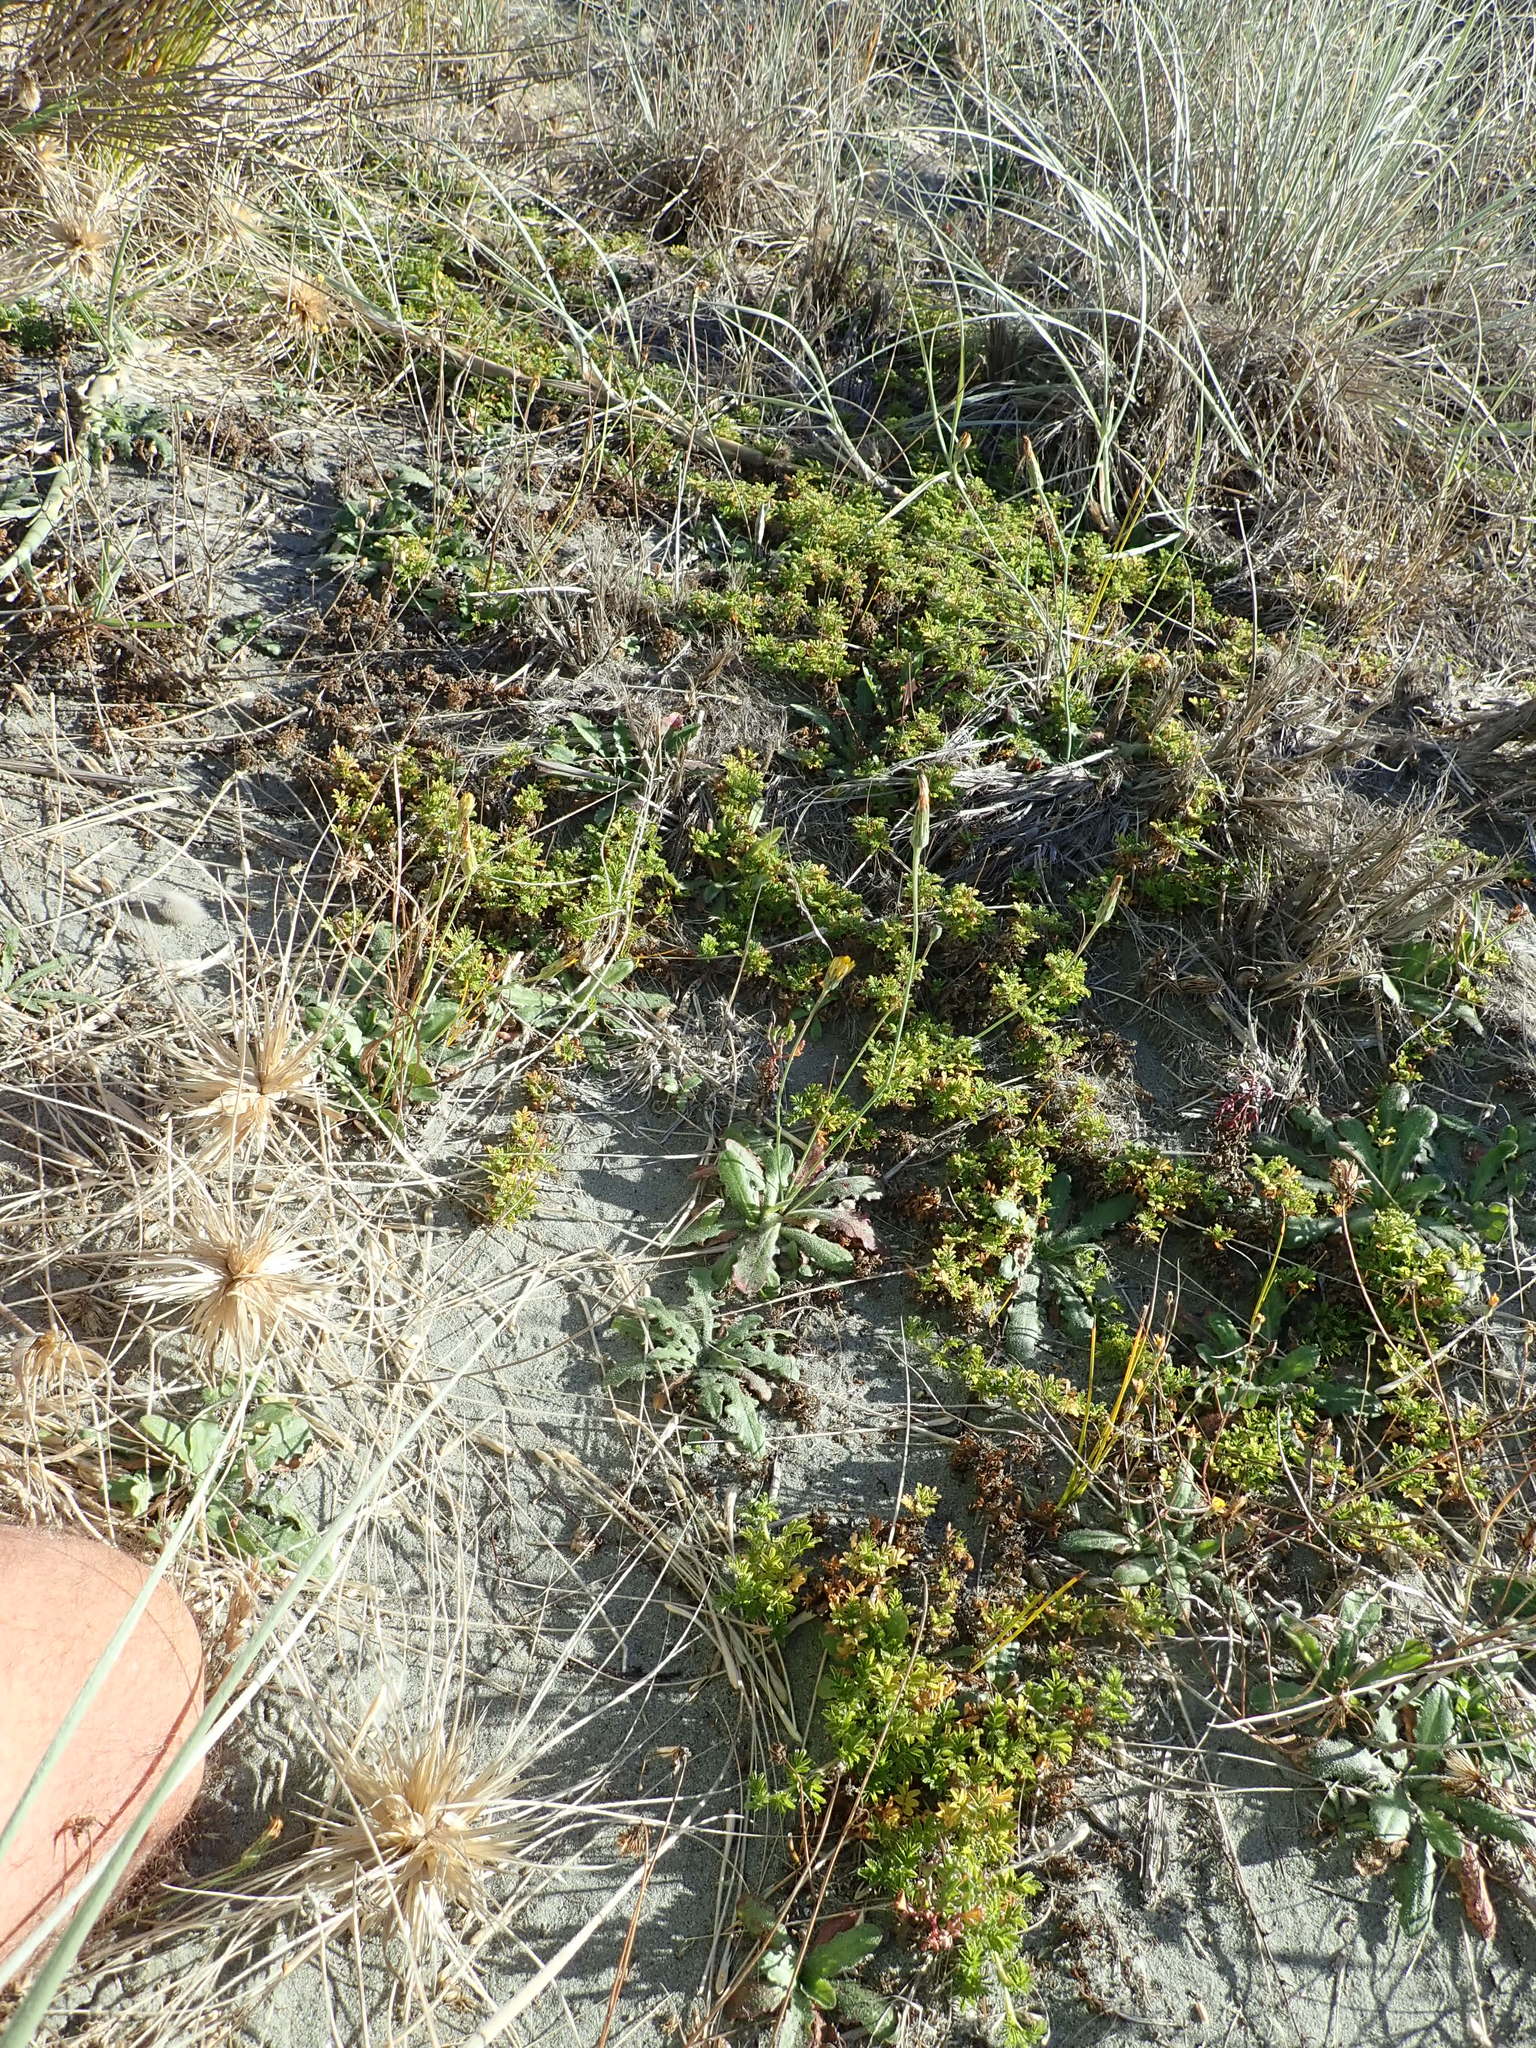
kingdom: Plantae
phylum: Tracheophyta
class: Magnoliopsida
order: Rosales
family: Rosaceae
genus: Acaena
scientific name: Acaena novae-zelandiae
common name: Pirri-pirri-bur
